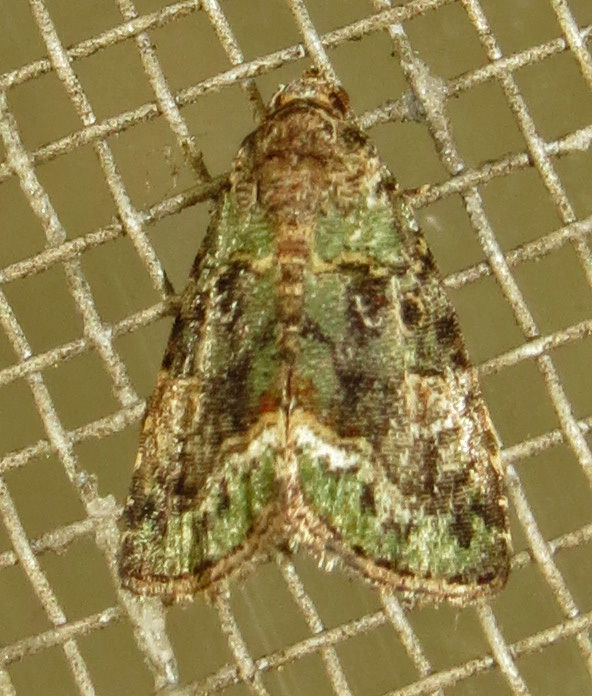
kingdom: Animalia
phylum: Arthropoda
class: Insecta
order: Lepidoptera
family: Noctuidae
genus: Lithacodia
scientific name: Lithacodia musta
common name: Small mossy glyph
